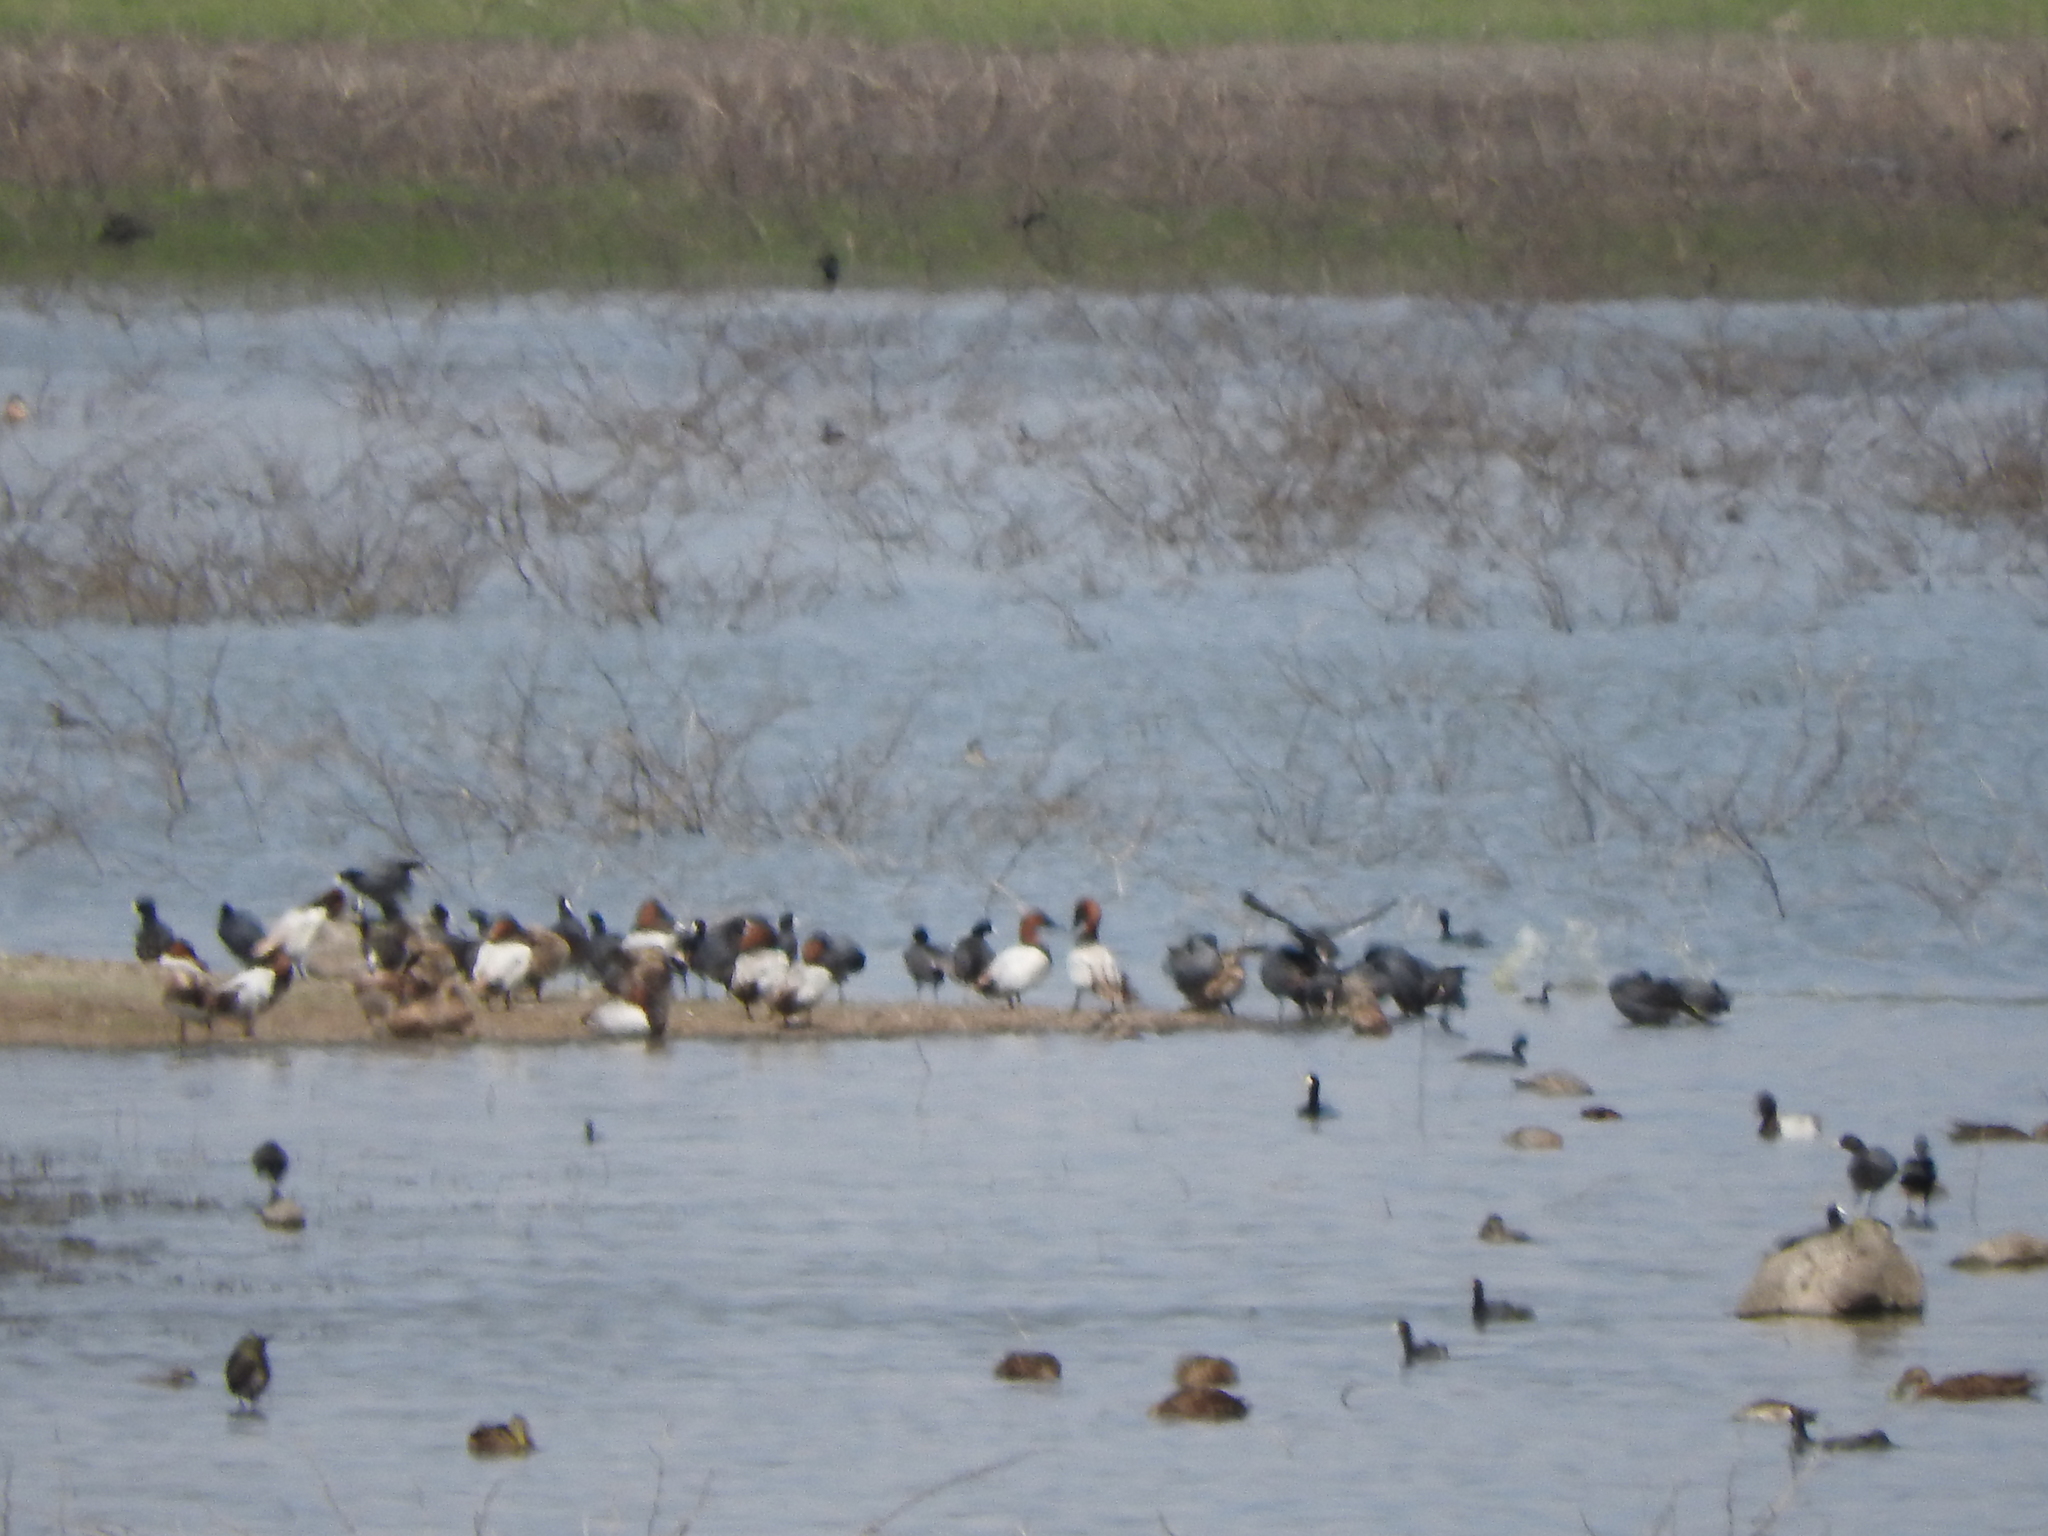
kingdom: Animalia
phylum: Chordata
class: Aves
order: Anseriformes
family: Anatidae
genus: Aythya
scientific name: Aythya valisineria
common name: Canvasback
